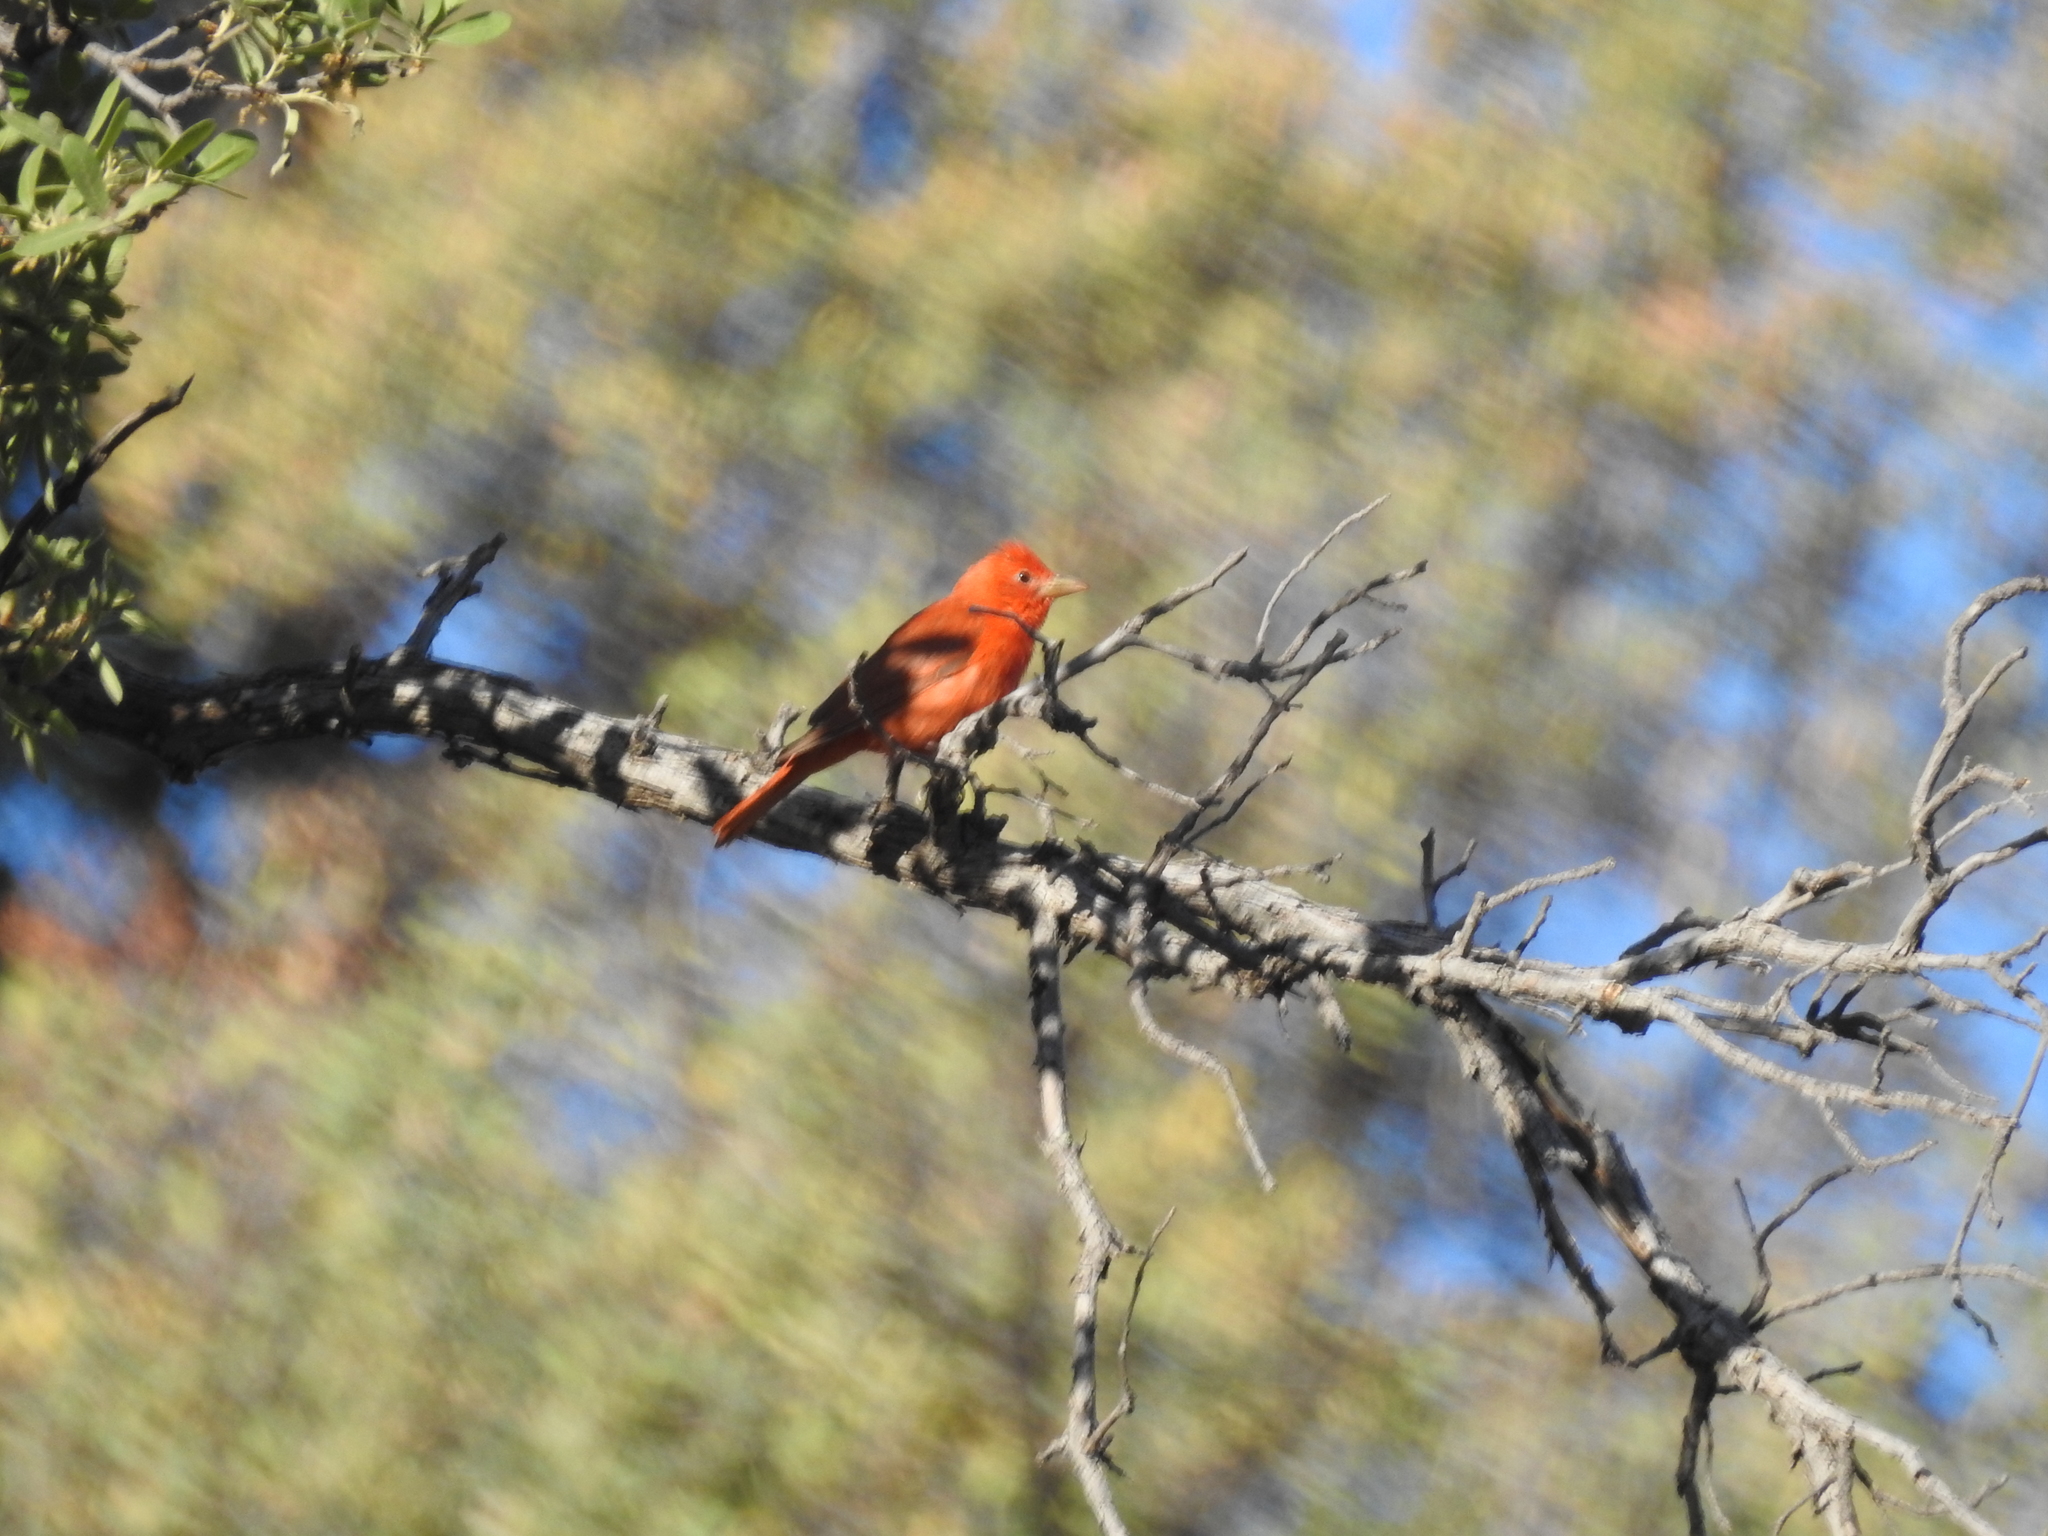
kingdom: Animalia
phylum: Chordata
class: Aves
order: Passeriformes
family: Cardinalidae
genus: Piranga
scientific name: Piranga rubra
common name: Summer tanager
